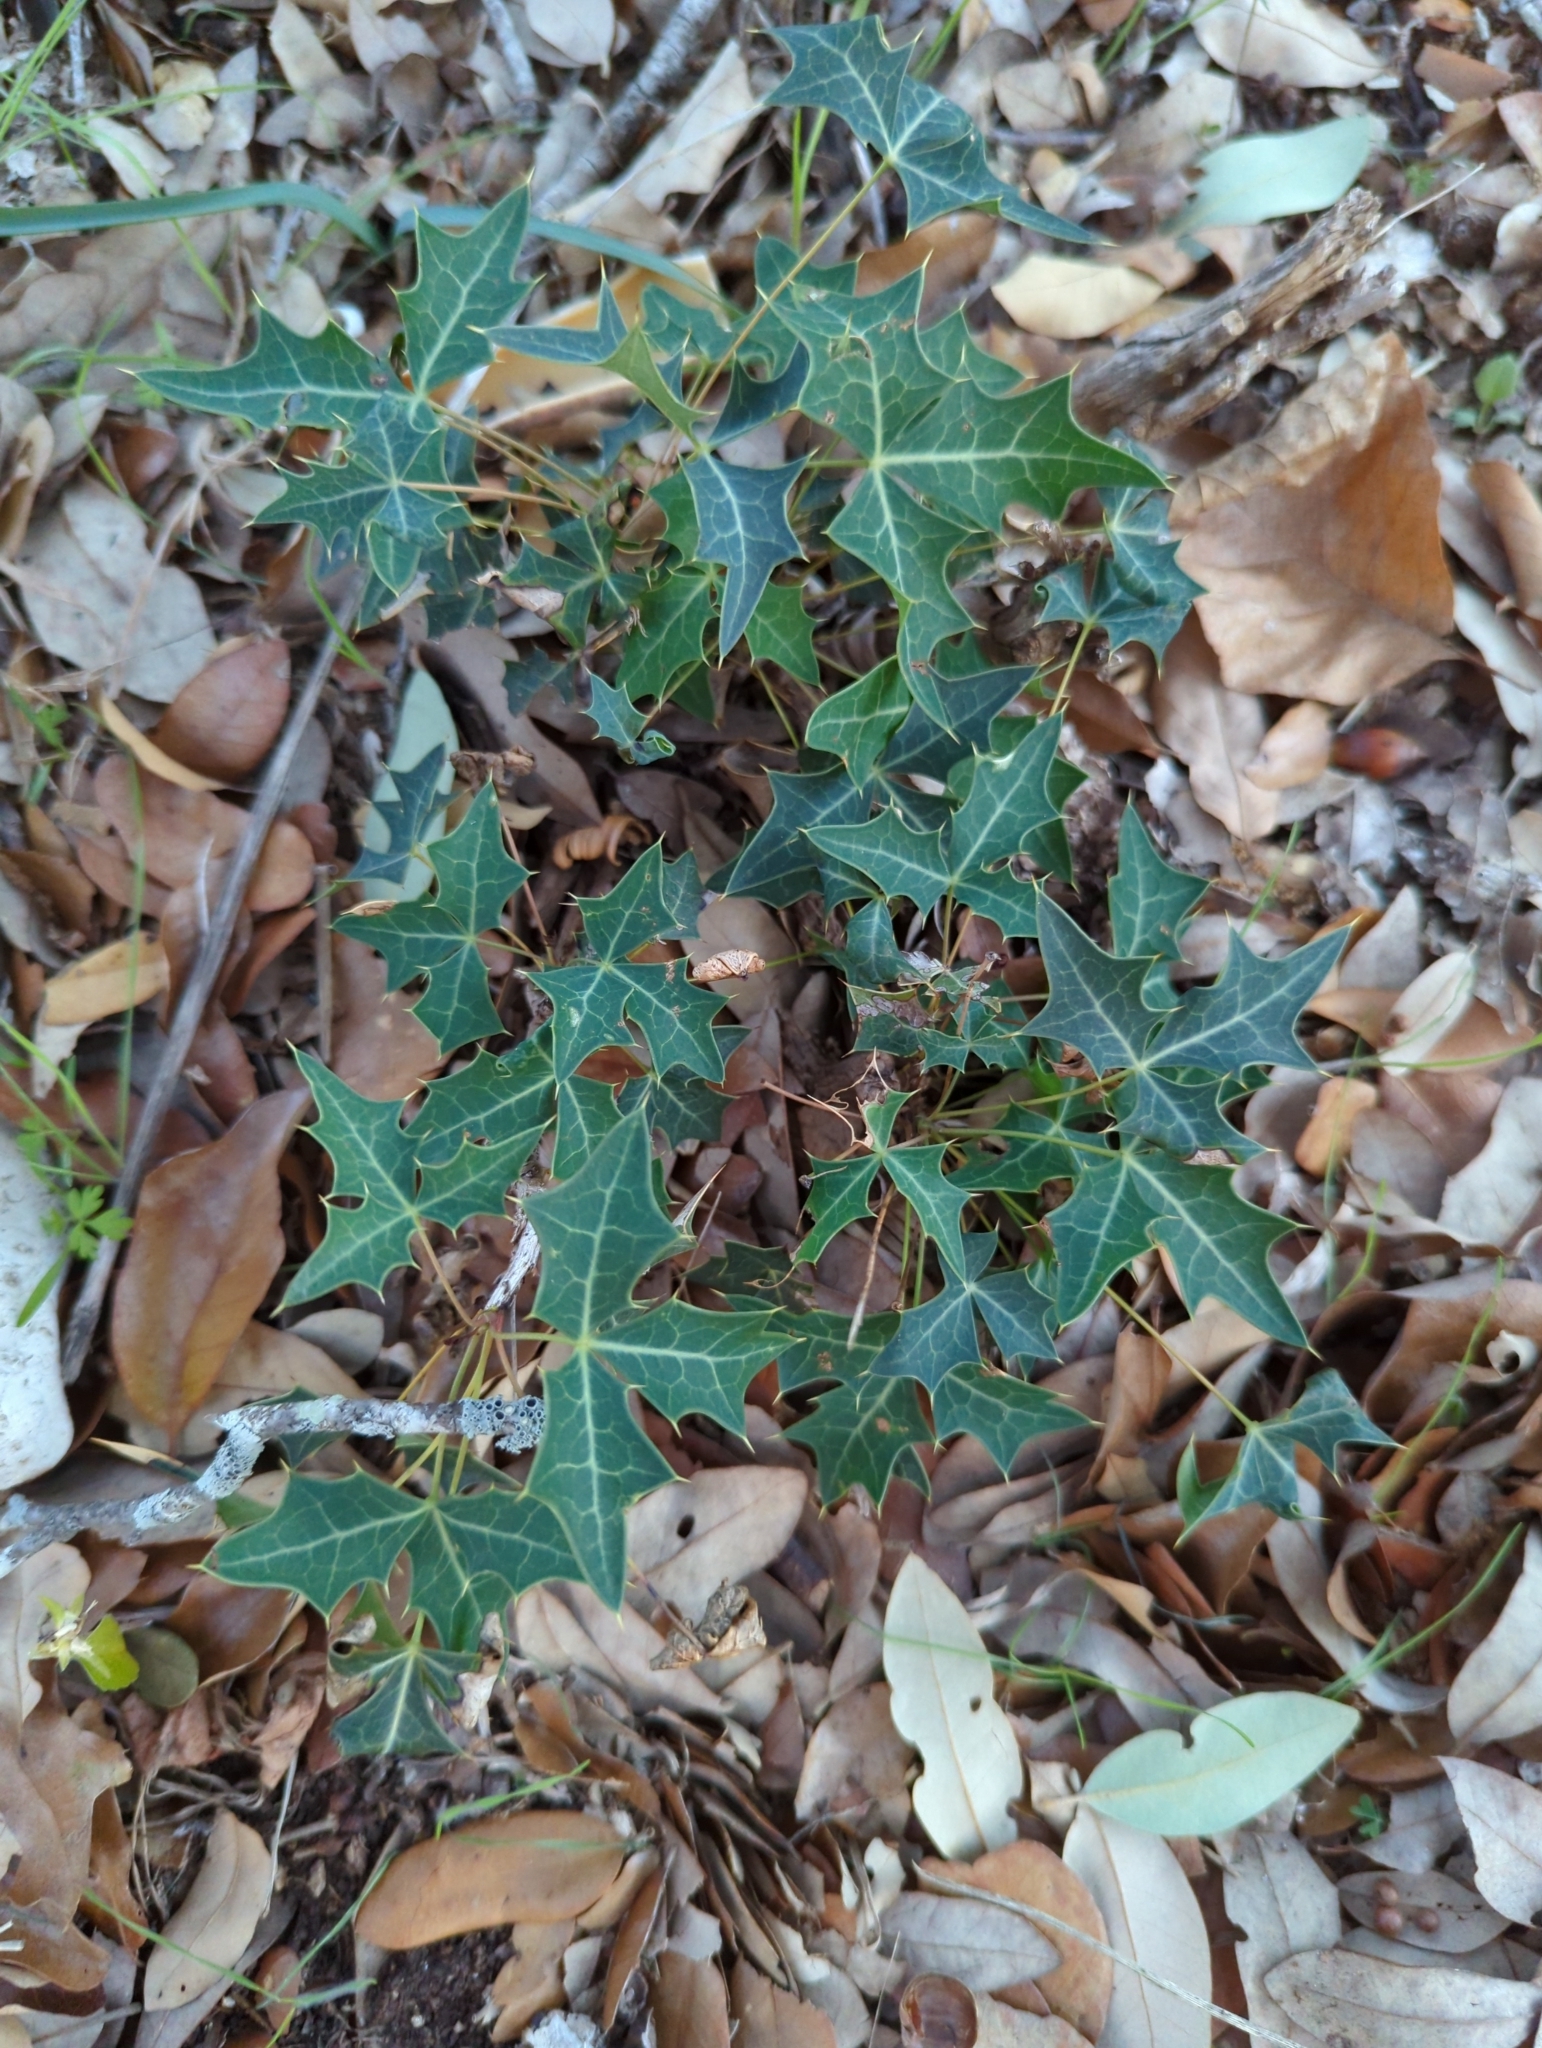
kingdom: Plantae
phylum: Tracheophyta
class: Magnoliopsida
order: Ranunculales
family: Berberidaceae
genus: Alloberberis
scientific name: Alloberberis trifoliolata
